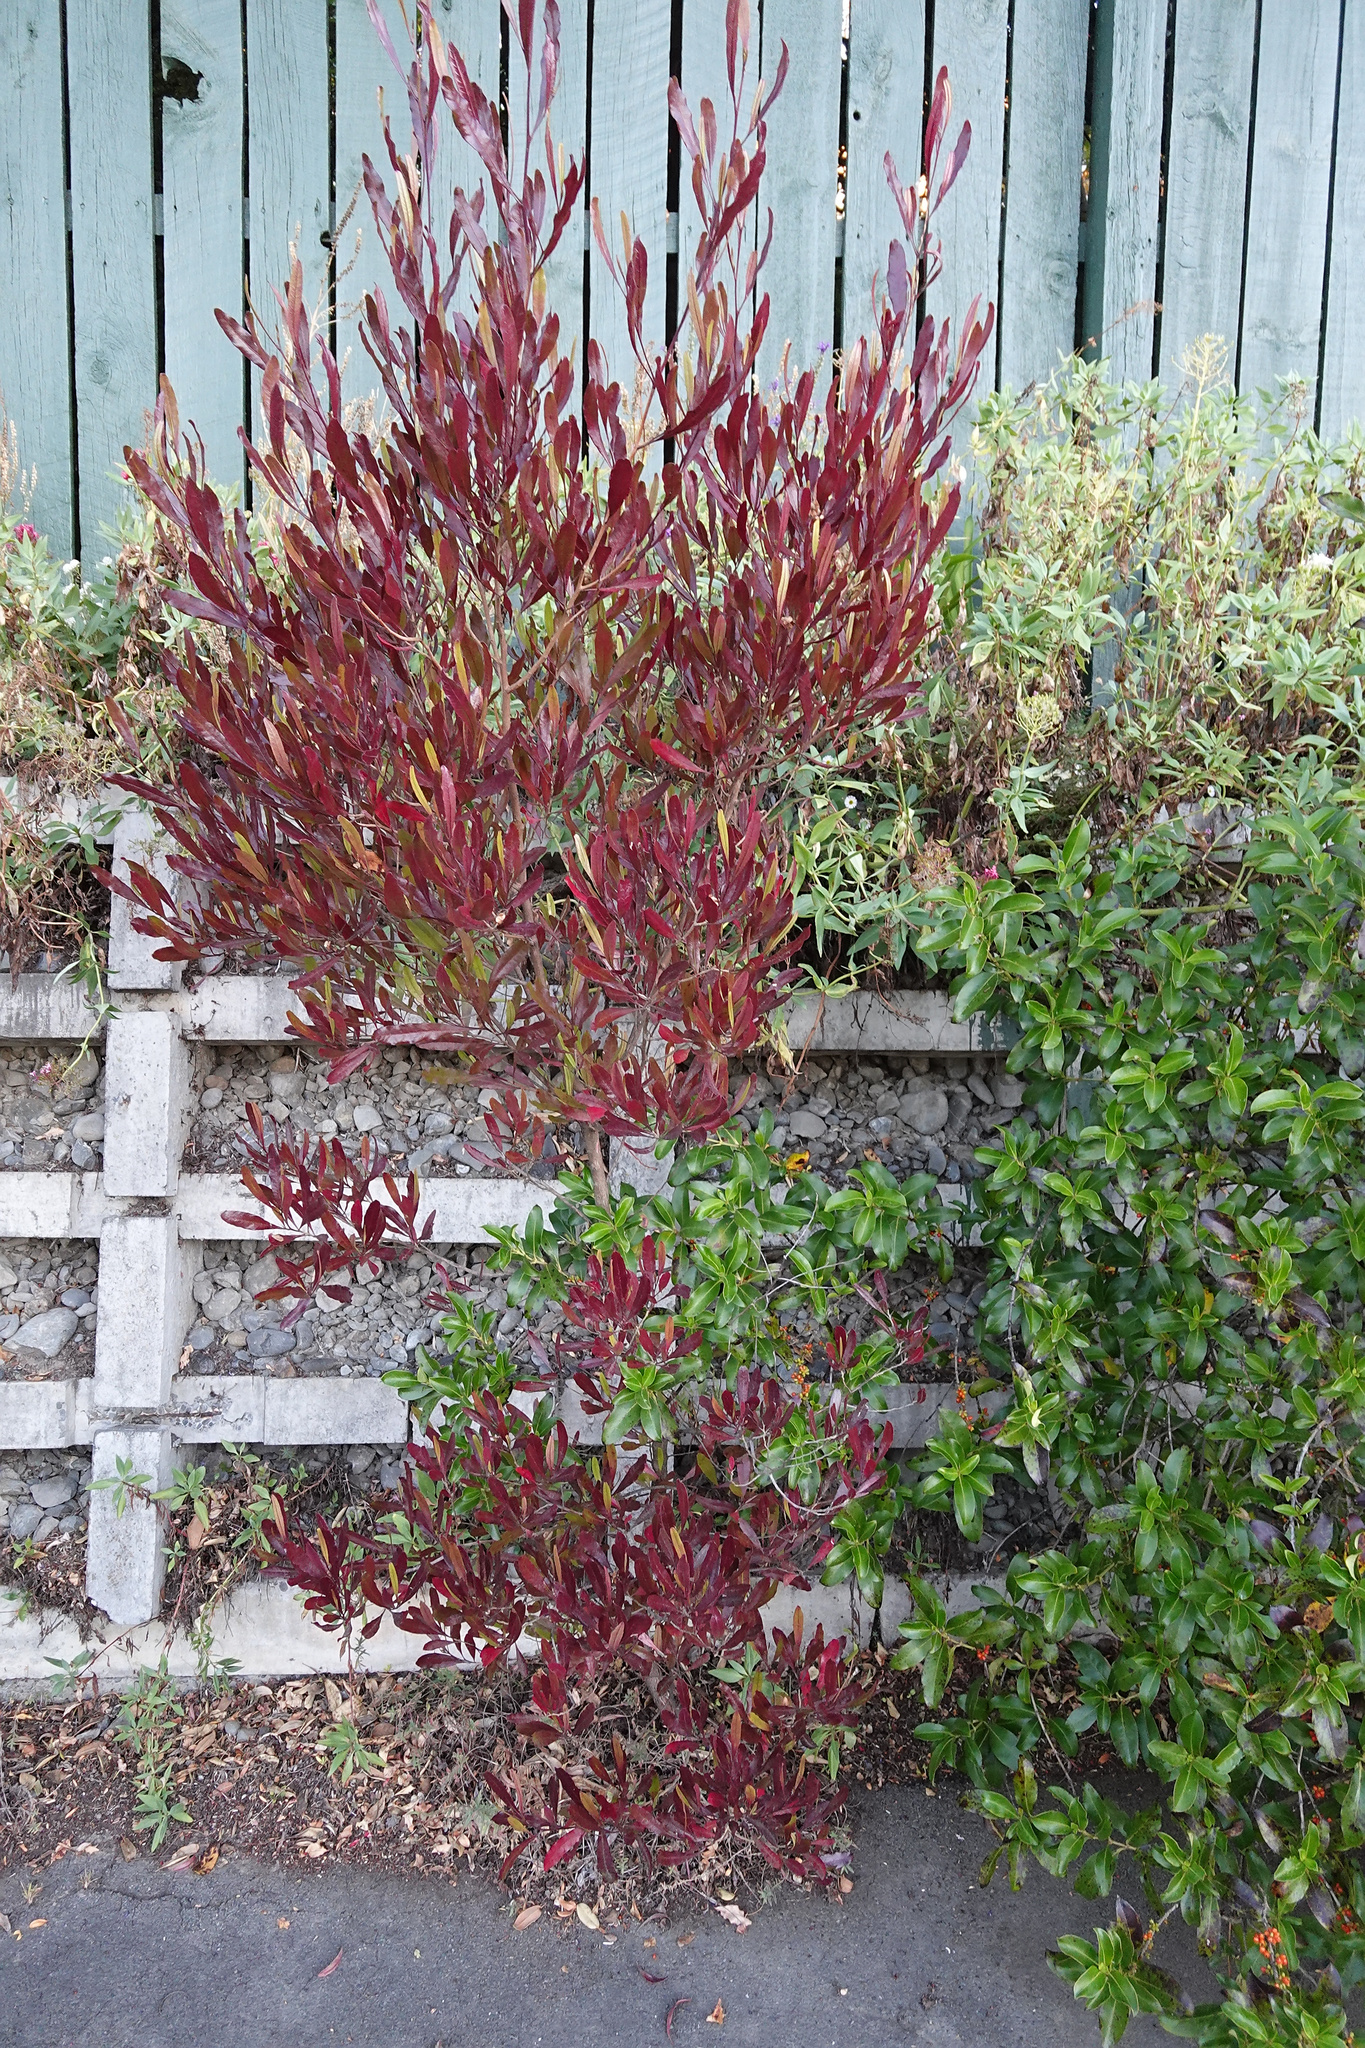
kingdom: Plantae
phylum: Tracheophyta
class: Magnoliopsida
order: Sapindales
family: Sapindaceae
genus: Dodonaea
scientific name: Dodonaea viscosa
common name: Hopbush
